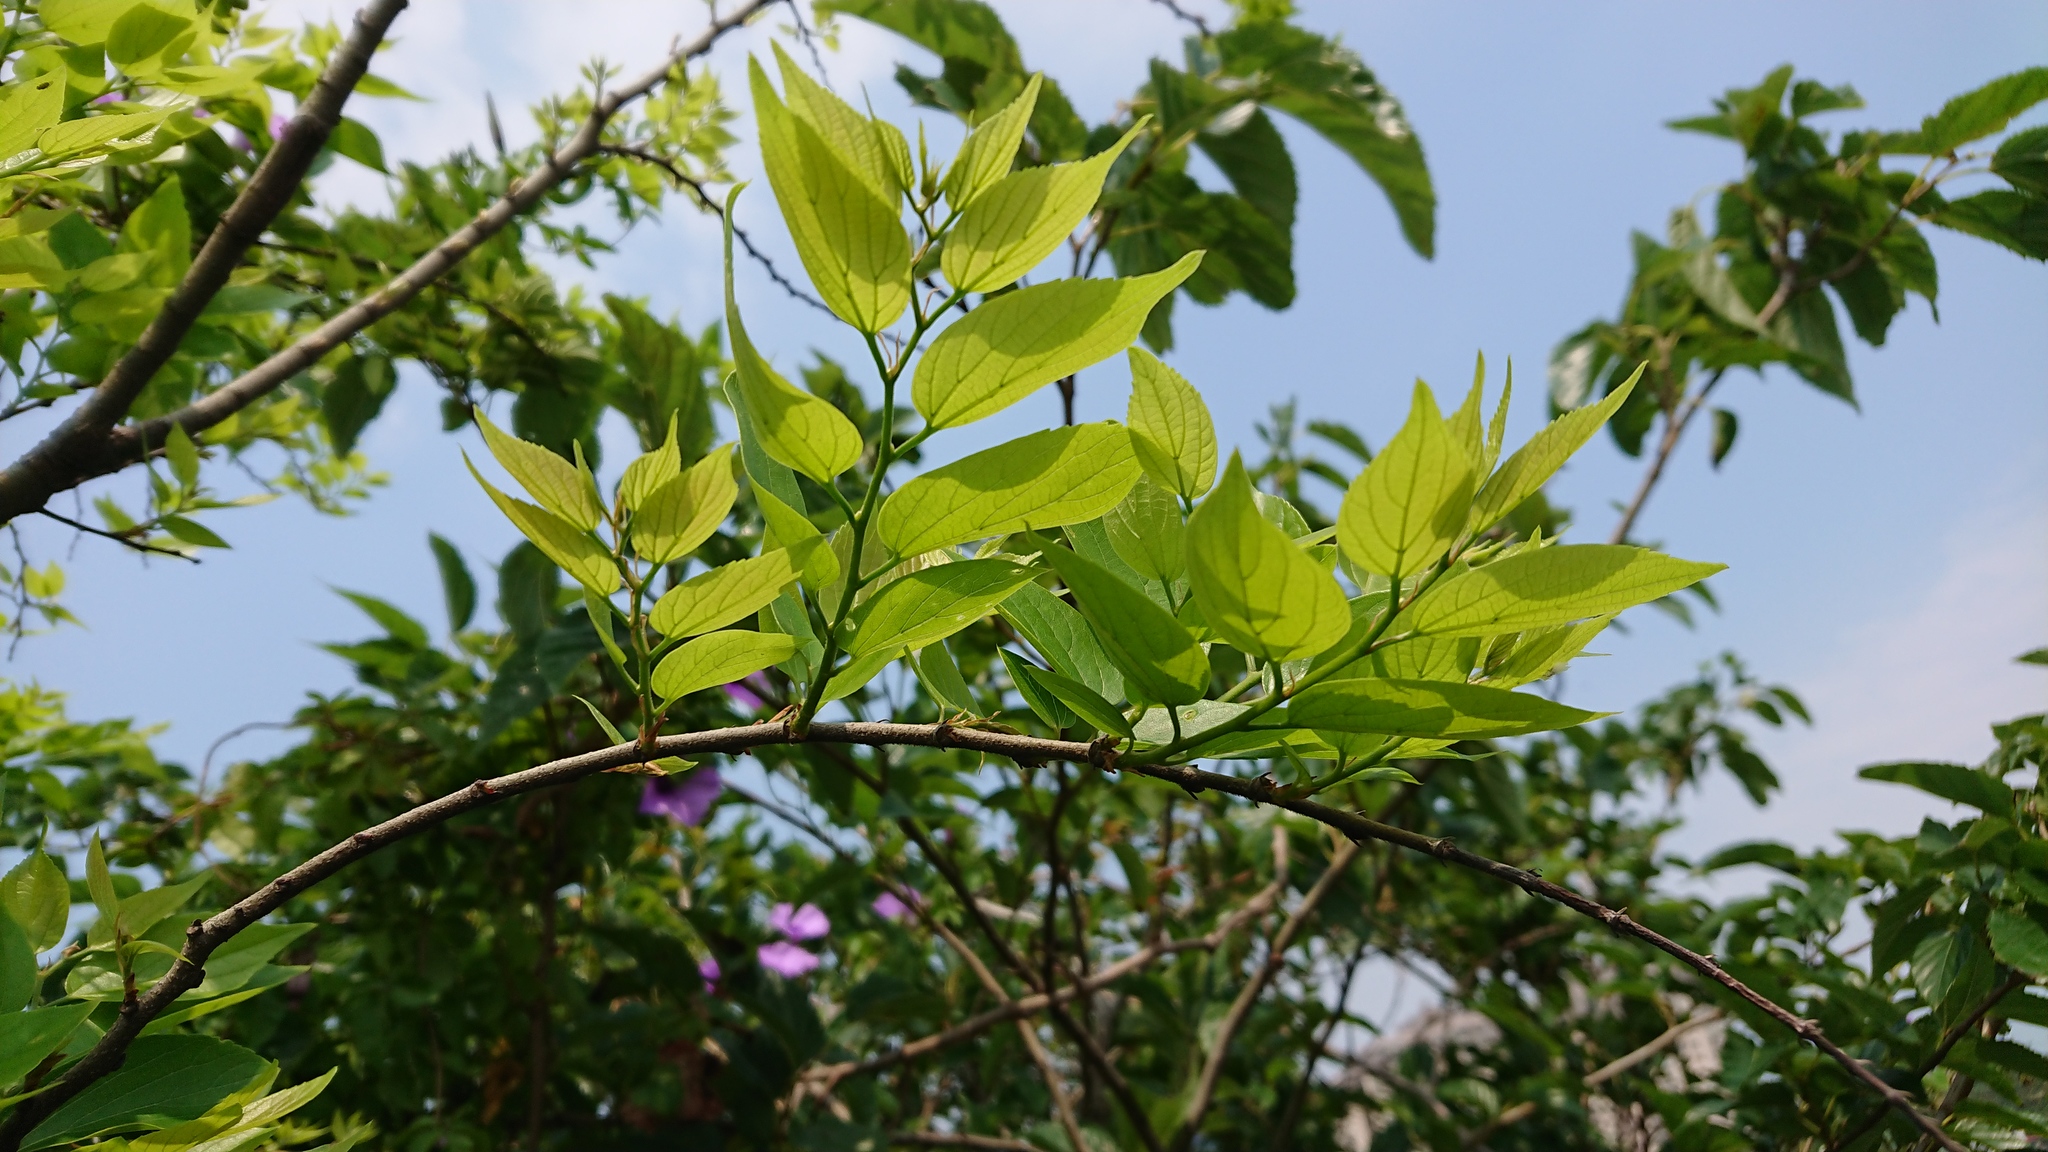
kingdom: Plantae
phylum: Tracheophyta
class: Magnoliopsida
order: Rosales
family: Cannabaceae
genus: Celtis
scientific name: Celtis sinensis
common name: Chinese hackberry
